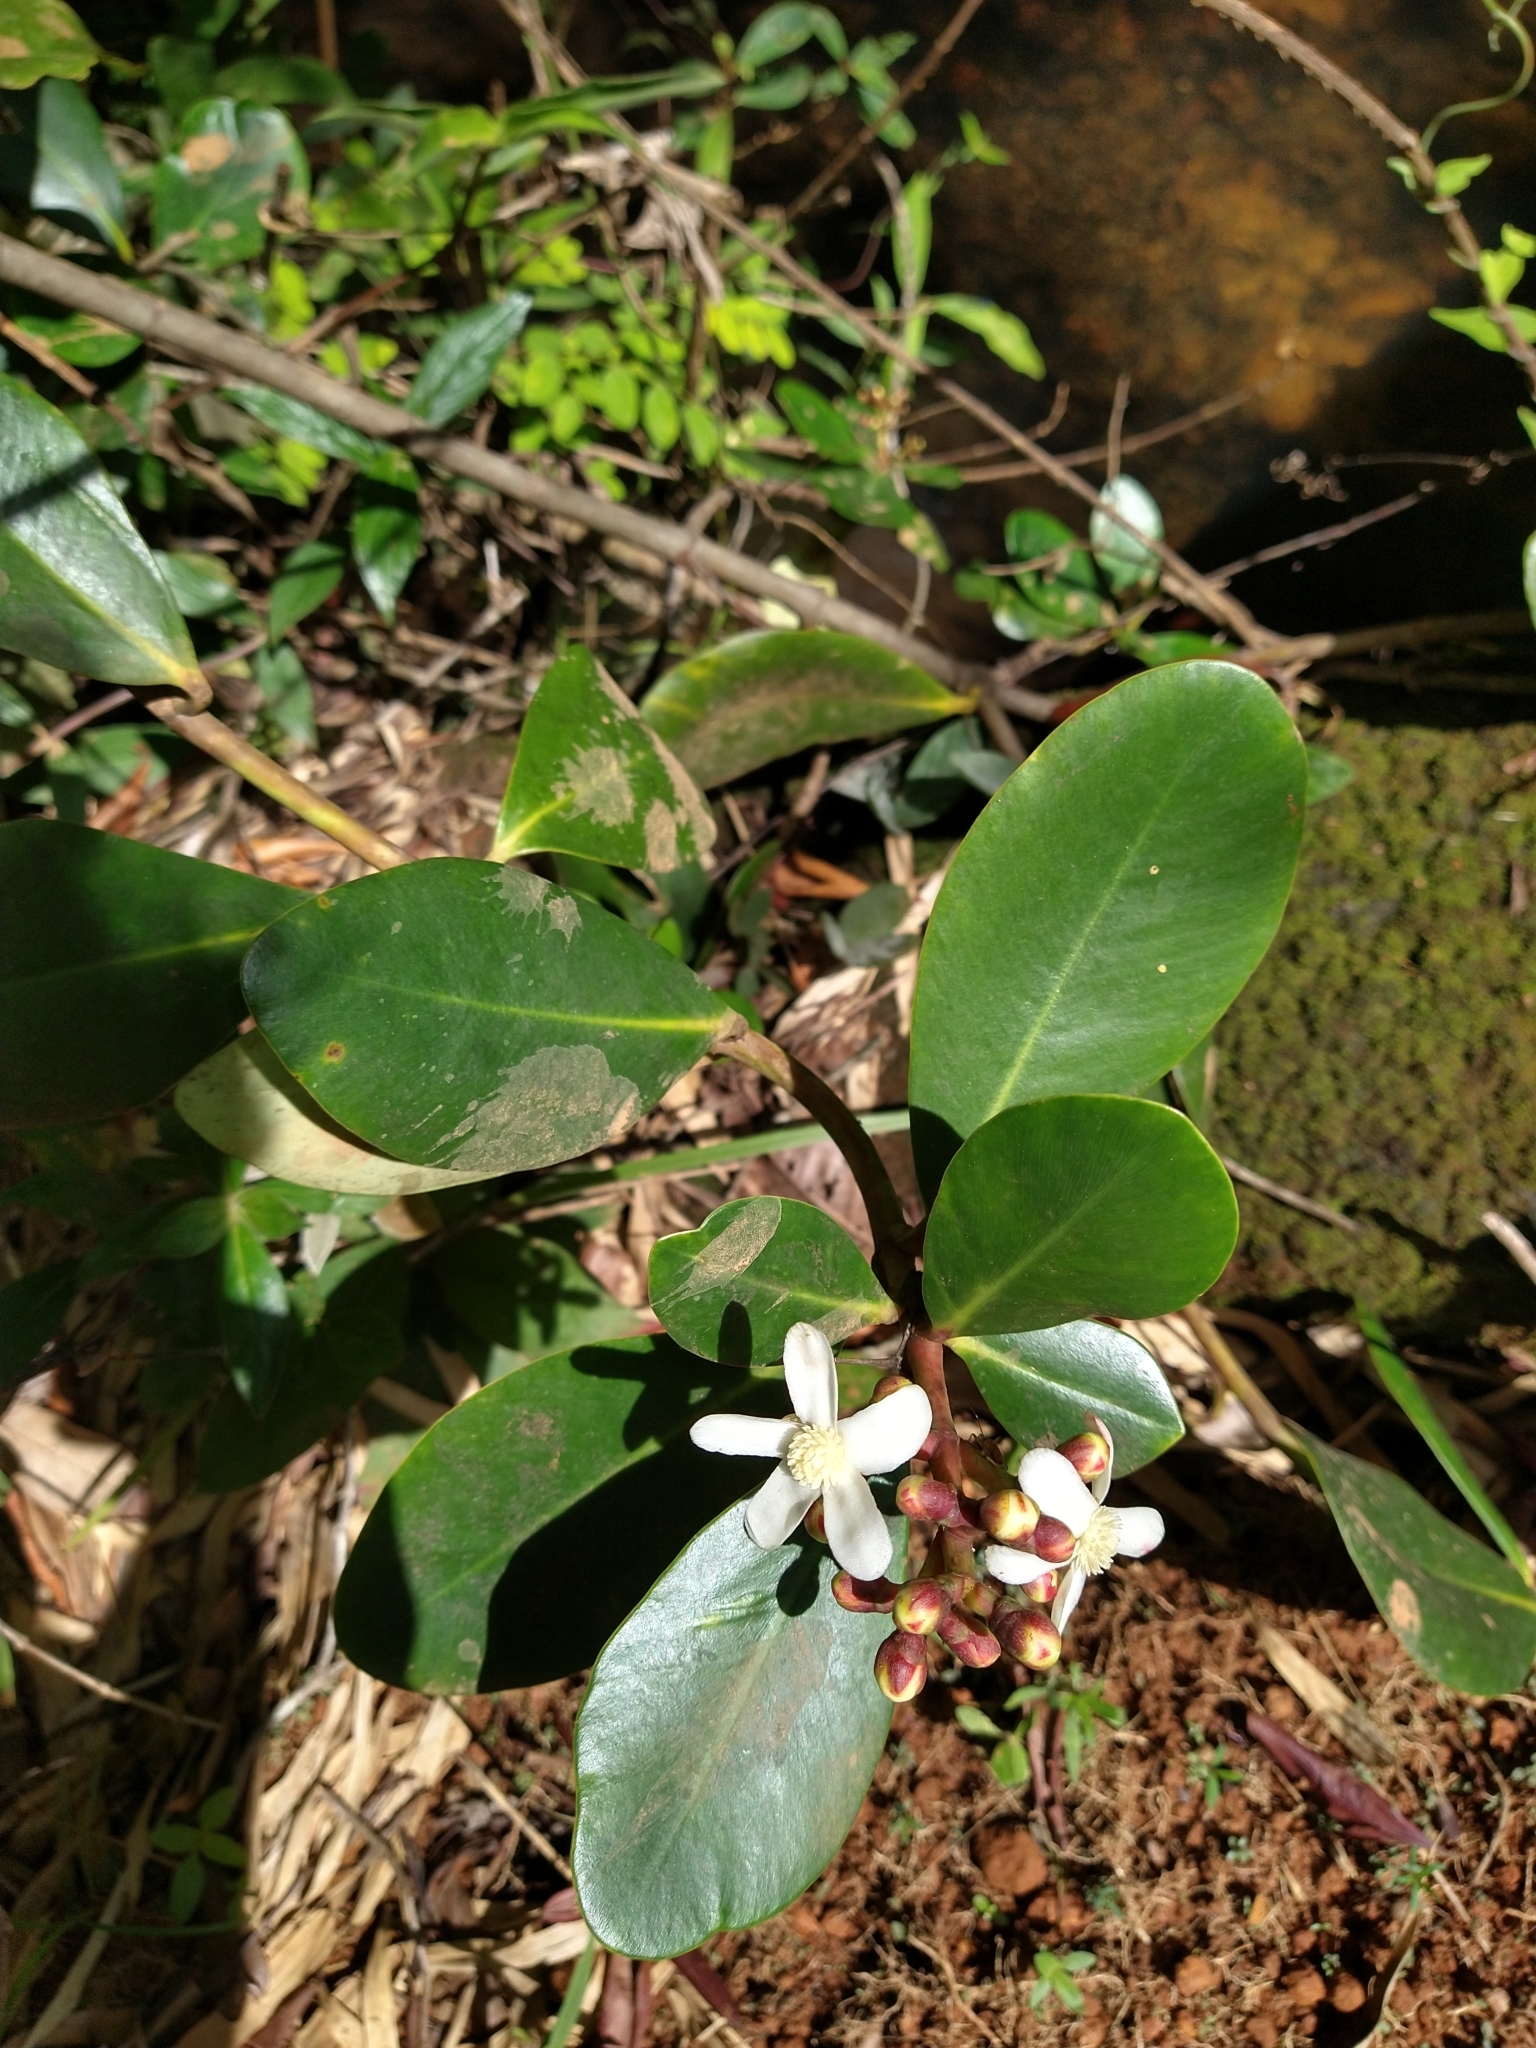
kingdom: Plantae
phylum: Tracheophyta
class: Magnoliopsida
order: Malpighiales
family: Clusiaceae
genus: Clusia
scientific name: Clusia criuva
